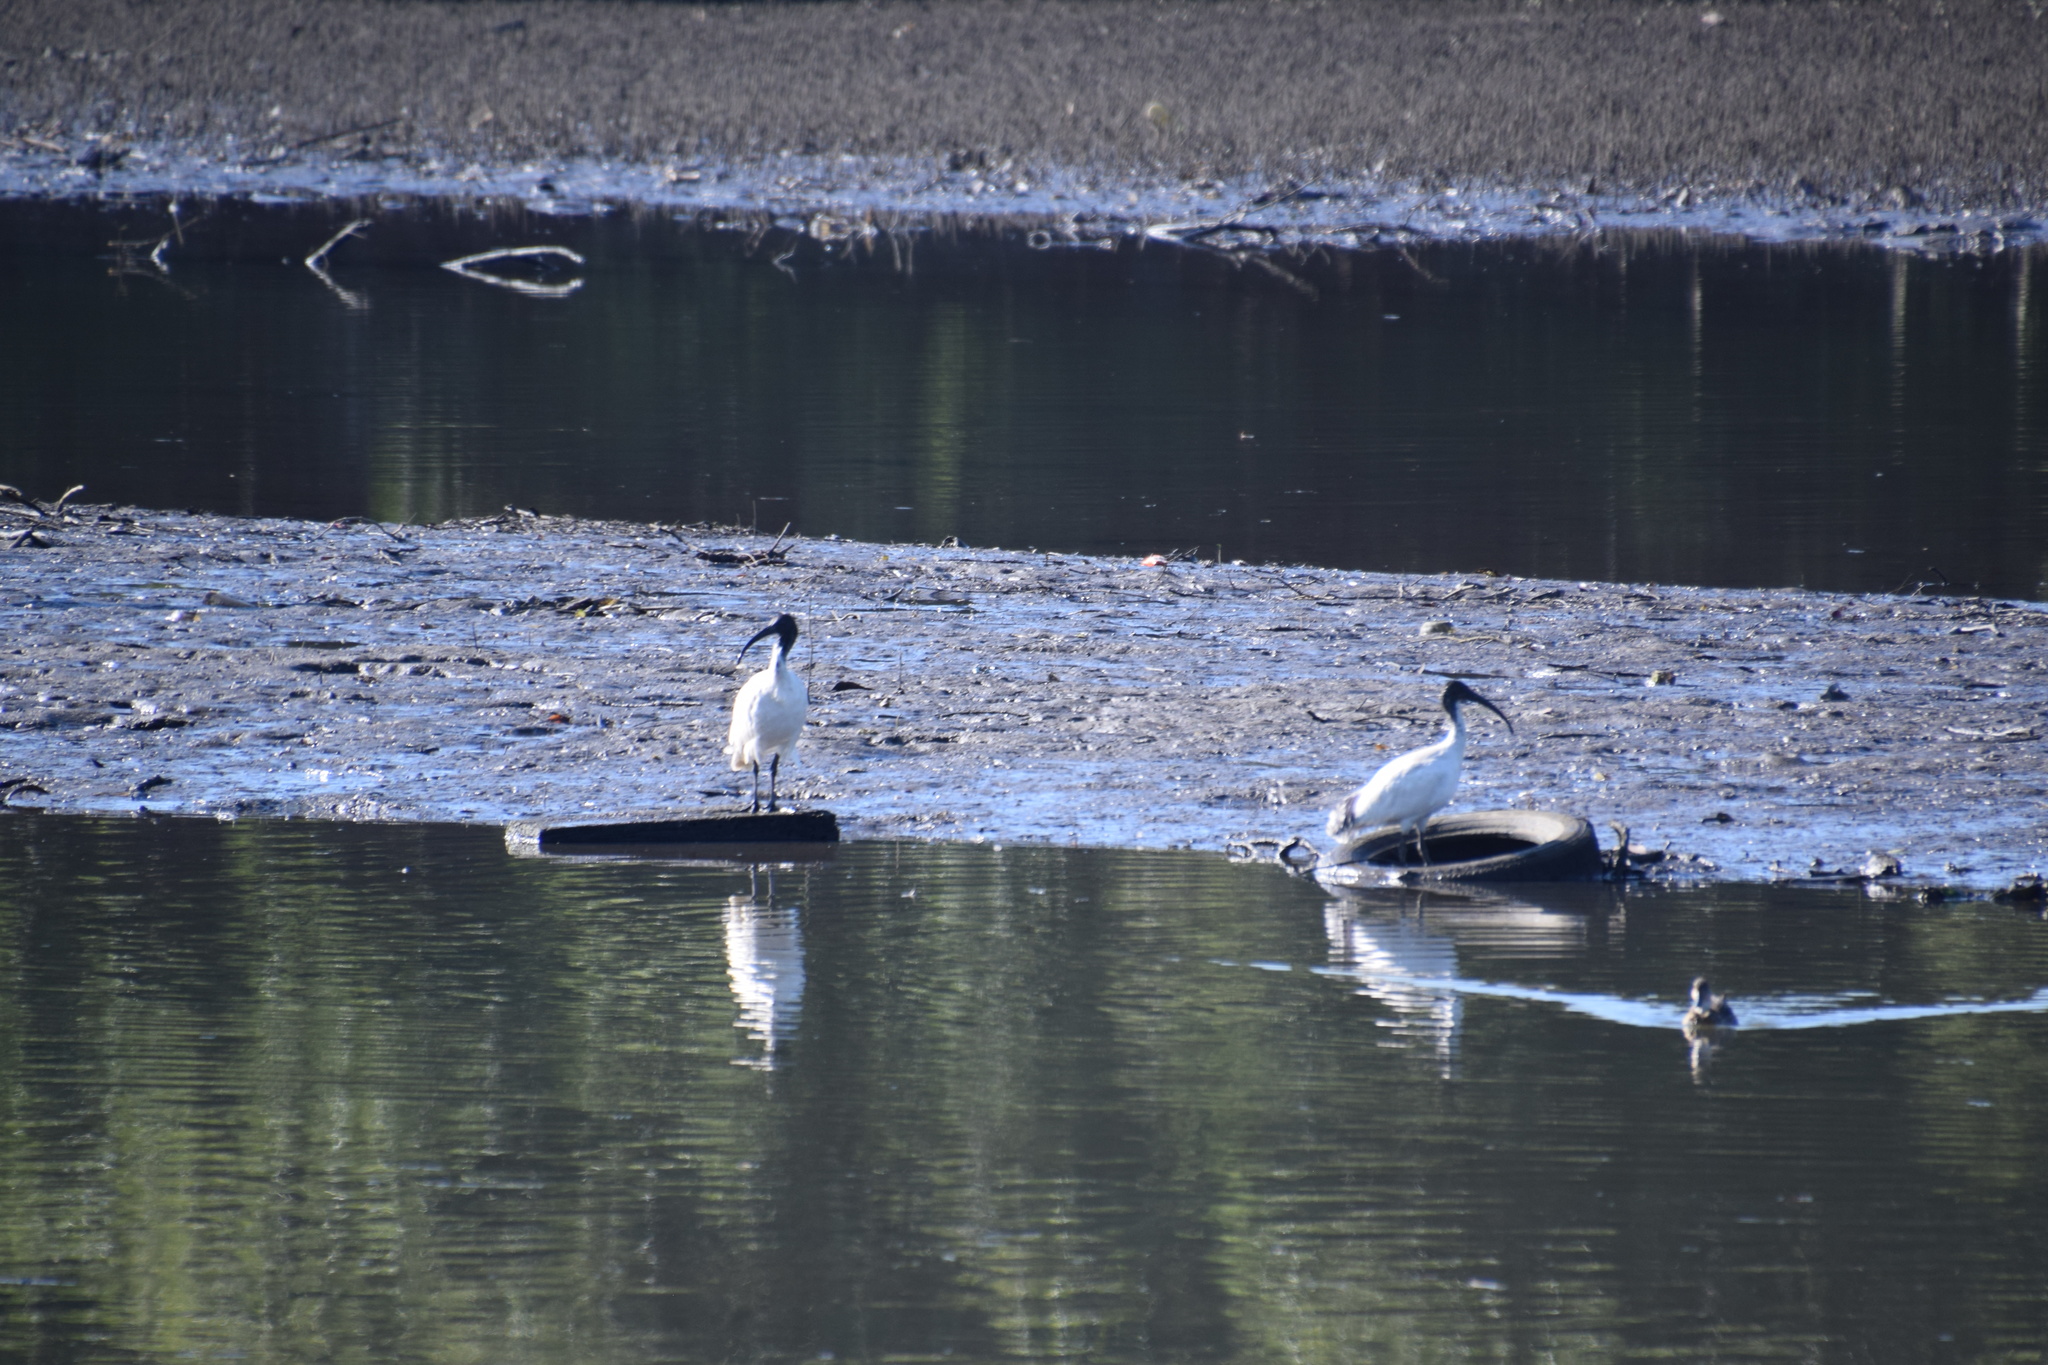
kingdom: Animalia
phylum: Chordata
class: Aves
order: Pelecaniformes
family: Threskiornithidae
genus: Threskiornis
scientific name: Threskiornis molucca
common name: Australian white ibis
